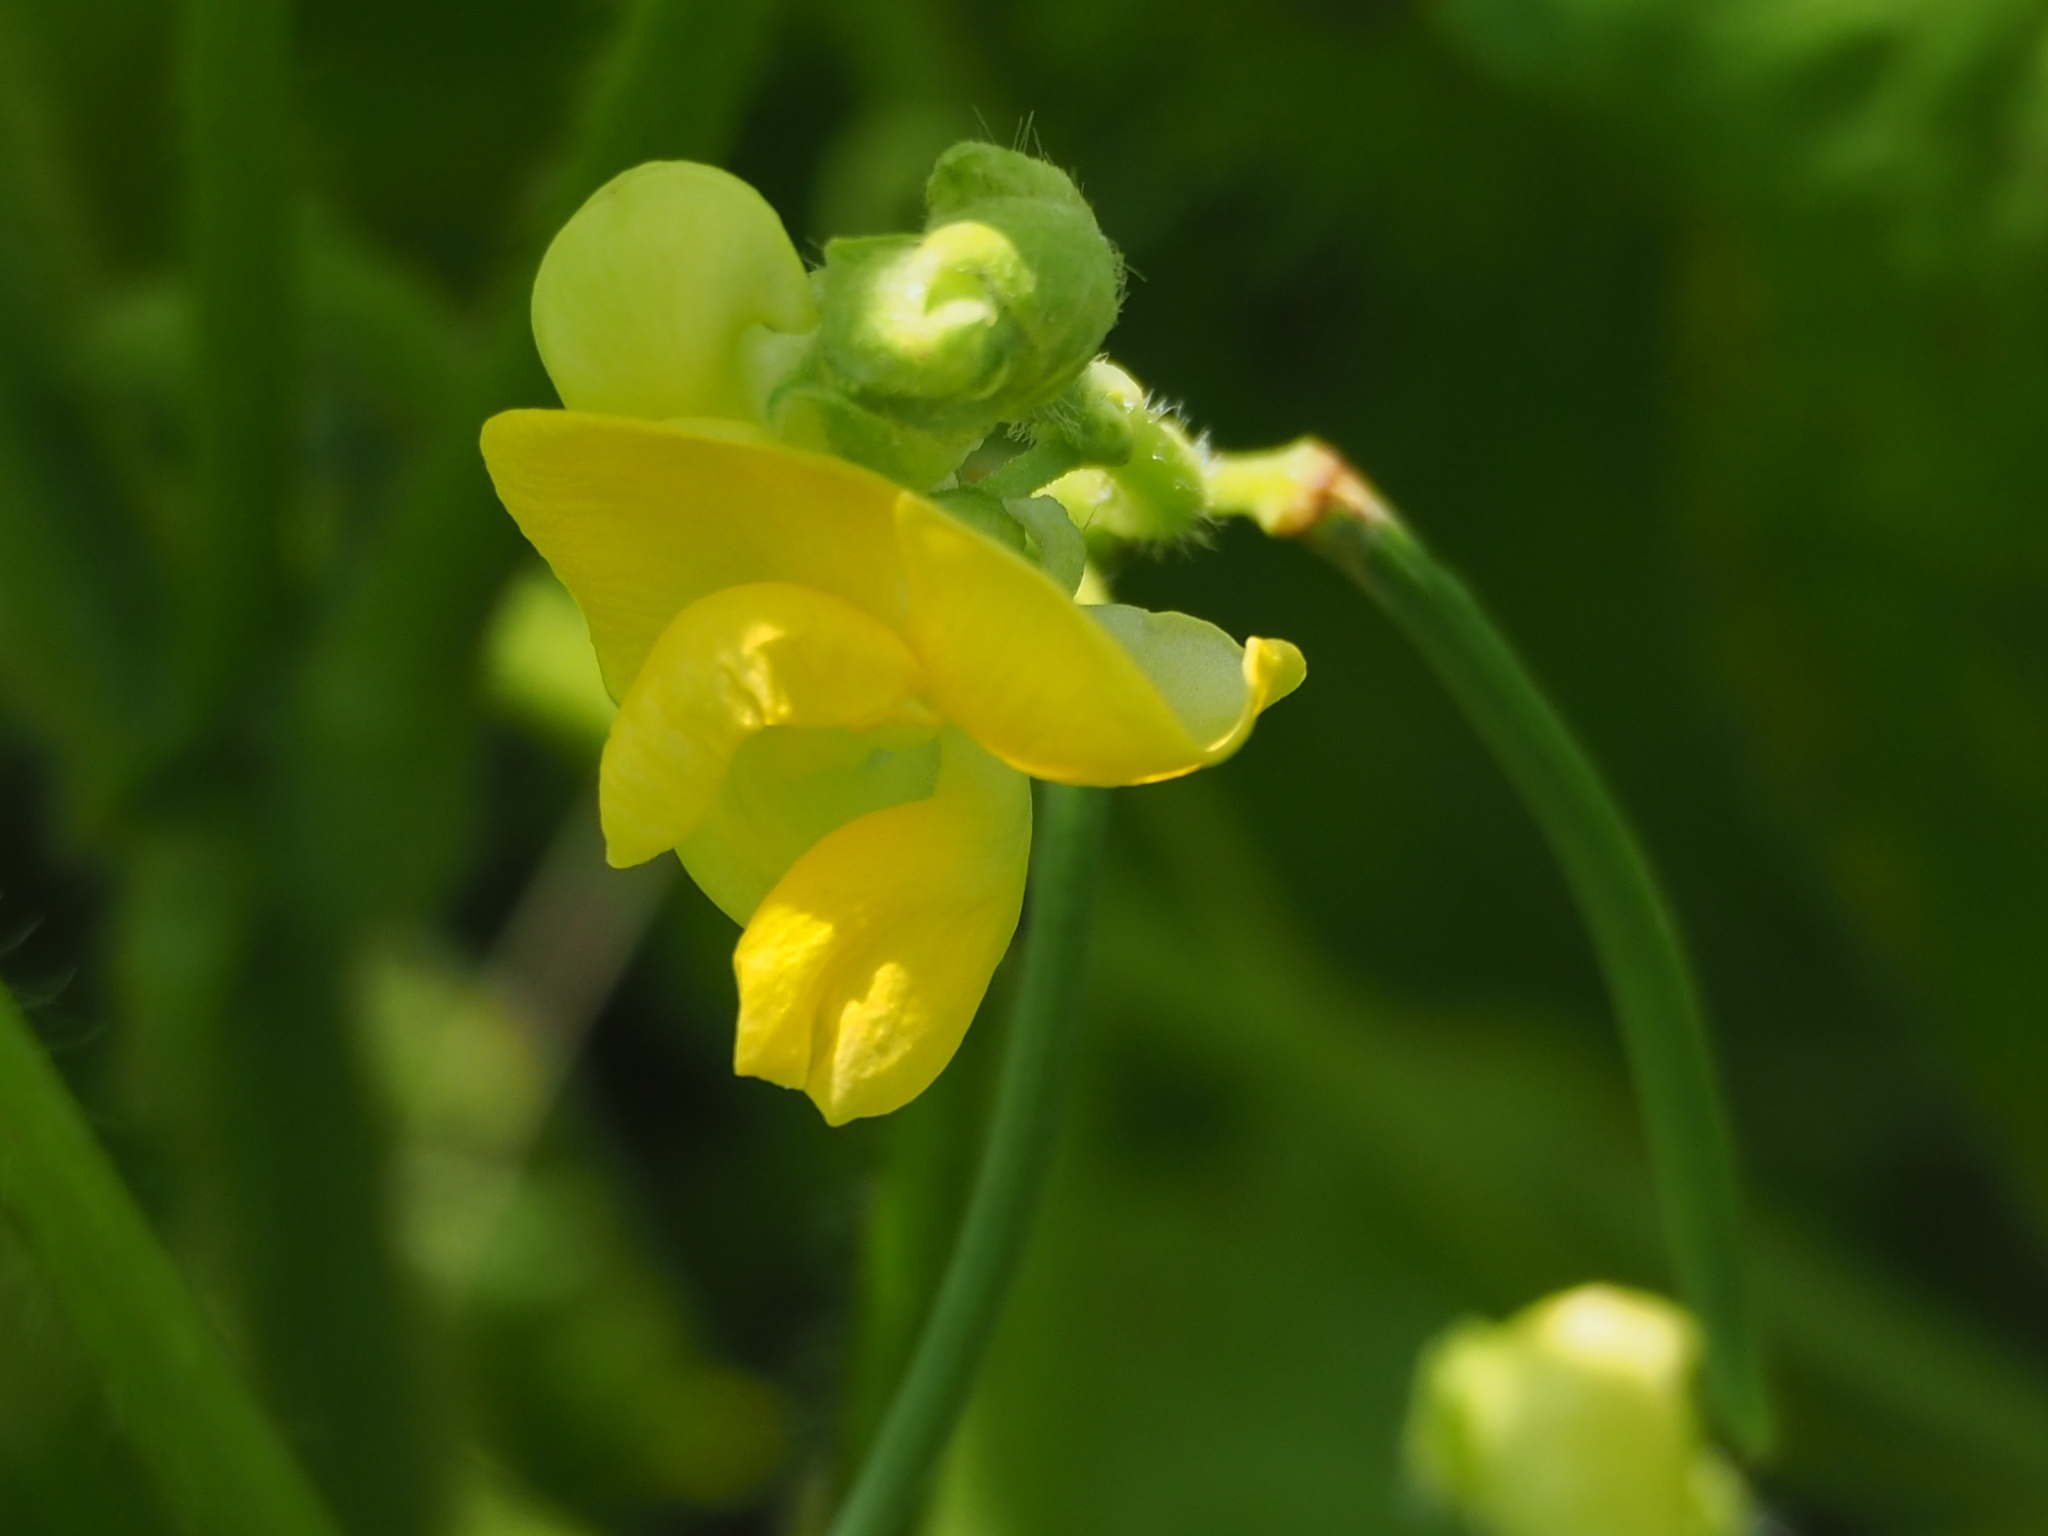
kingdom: Plantae
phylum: Tracheophyta
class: Magnoliopsida
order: Fabales
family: Fabaceae
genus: Vigna
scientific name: Vigna umbellata
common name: Oriental-bean
